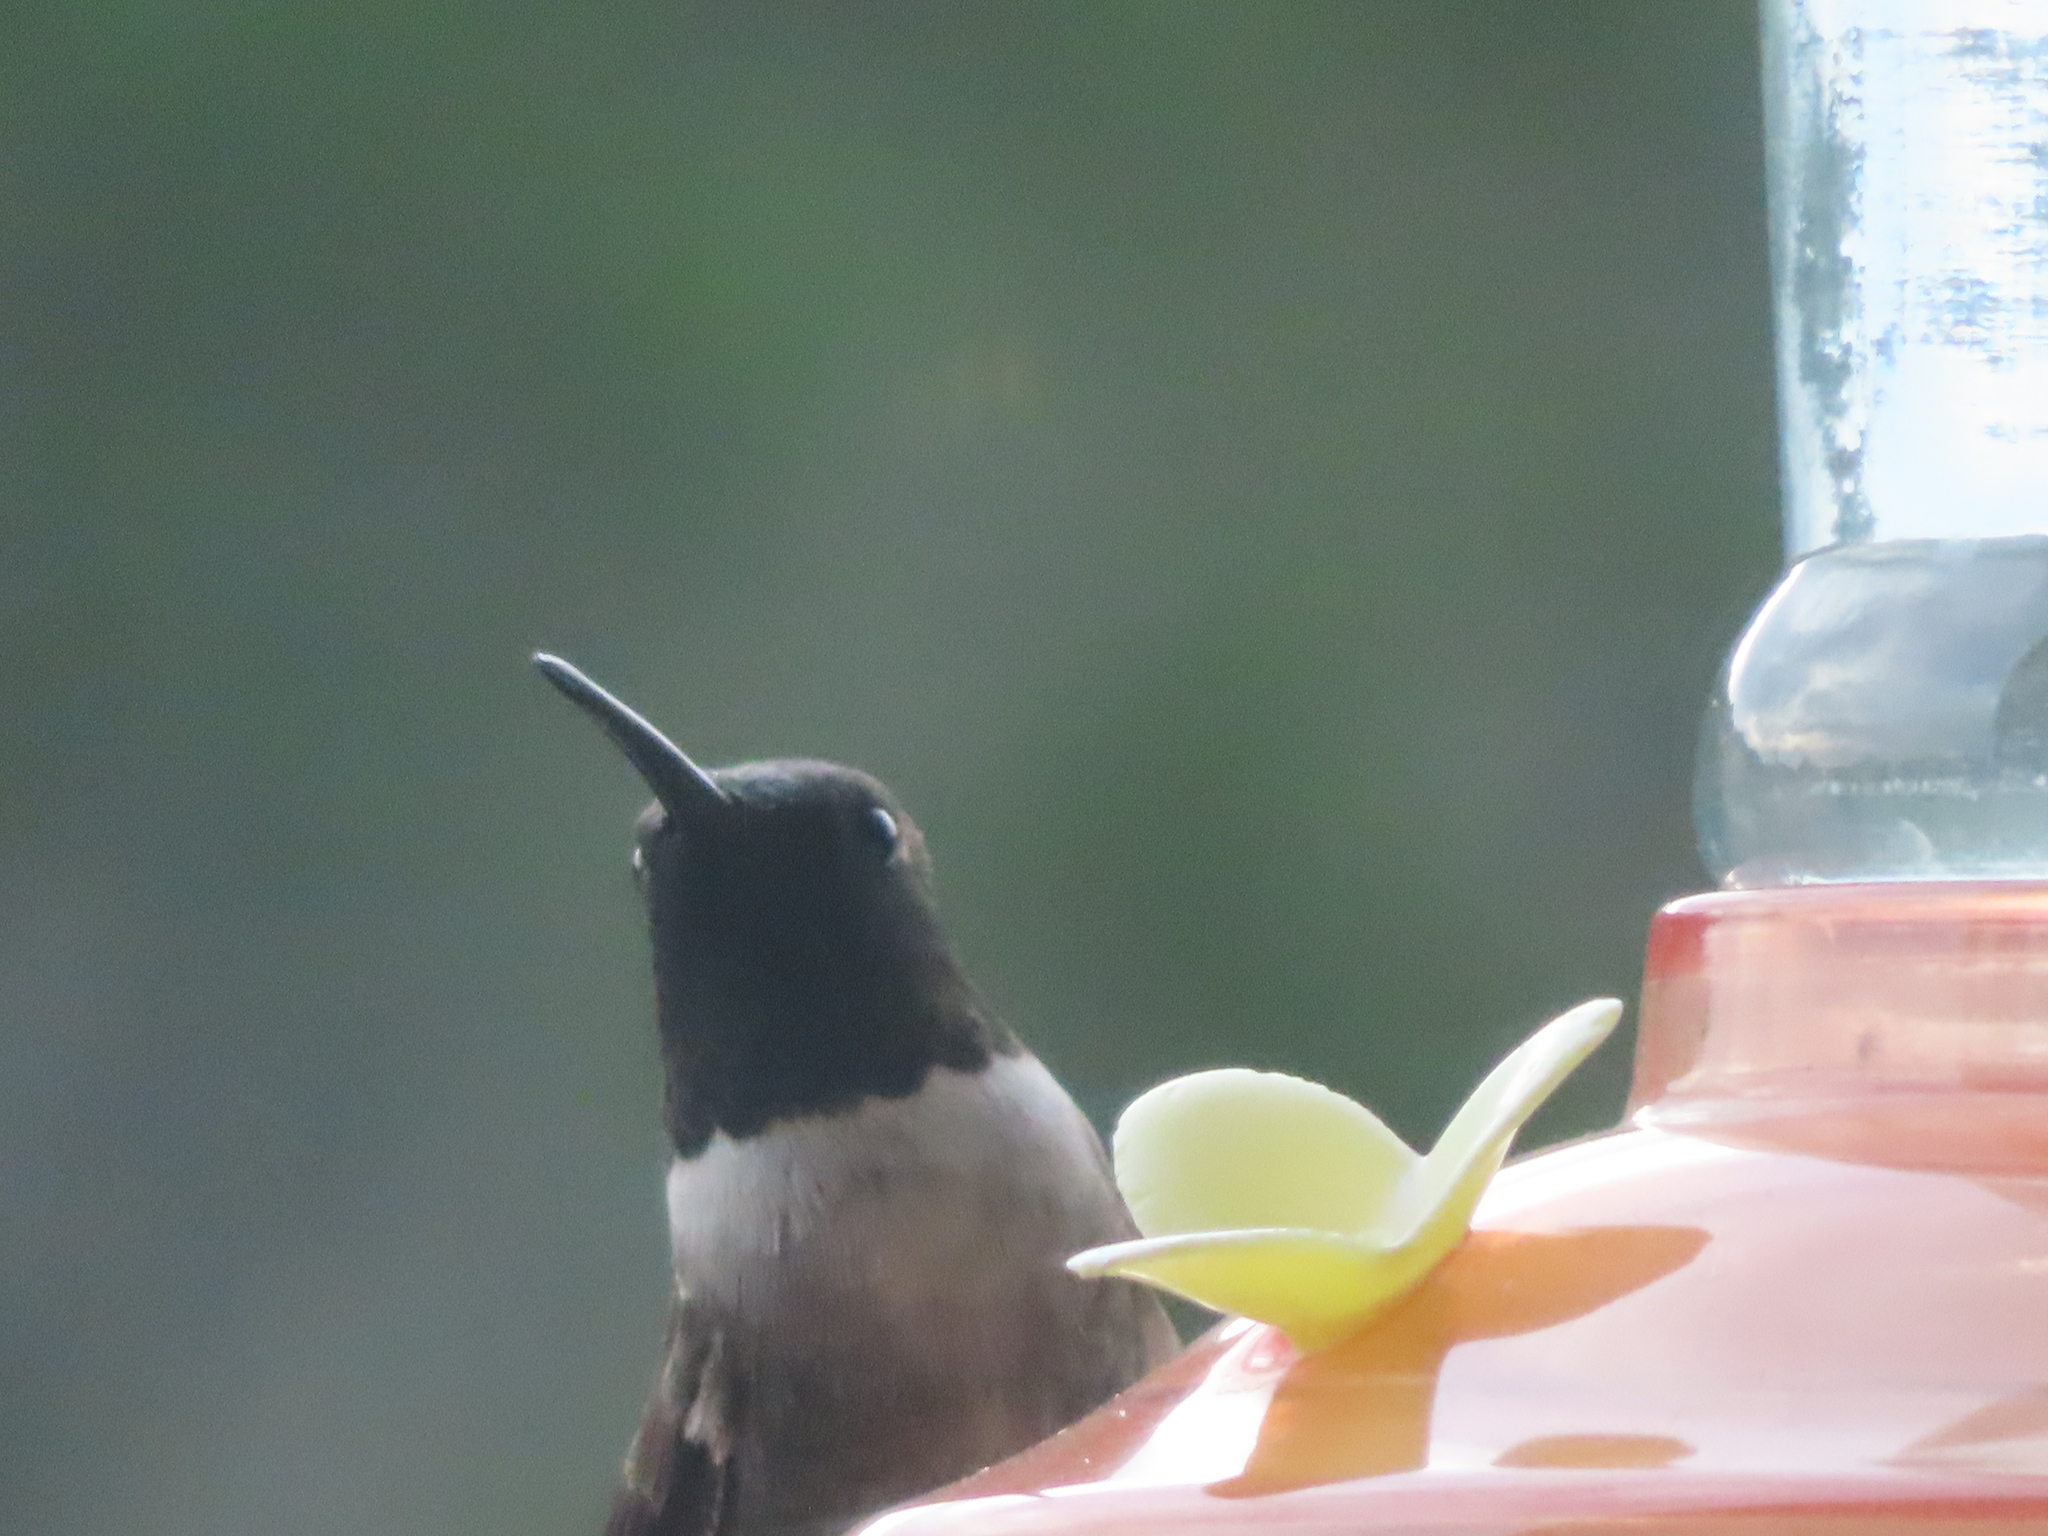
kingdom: Animalia
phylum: Chordata
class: Aves
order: Apodiformes
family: Trochilidae
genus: Archilochus
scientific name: Archilochus alexandri
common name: Black-chinned hummingbird
